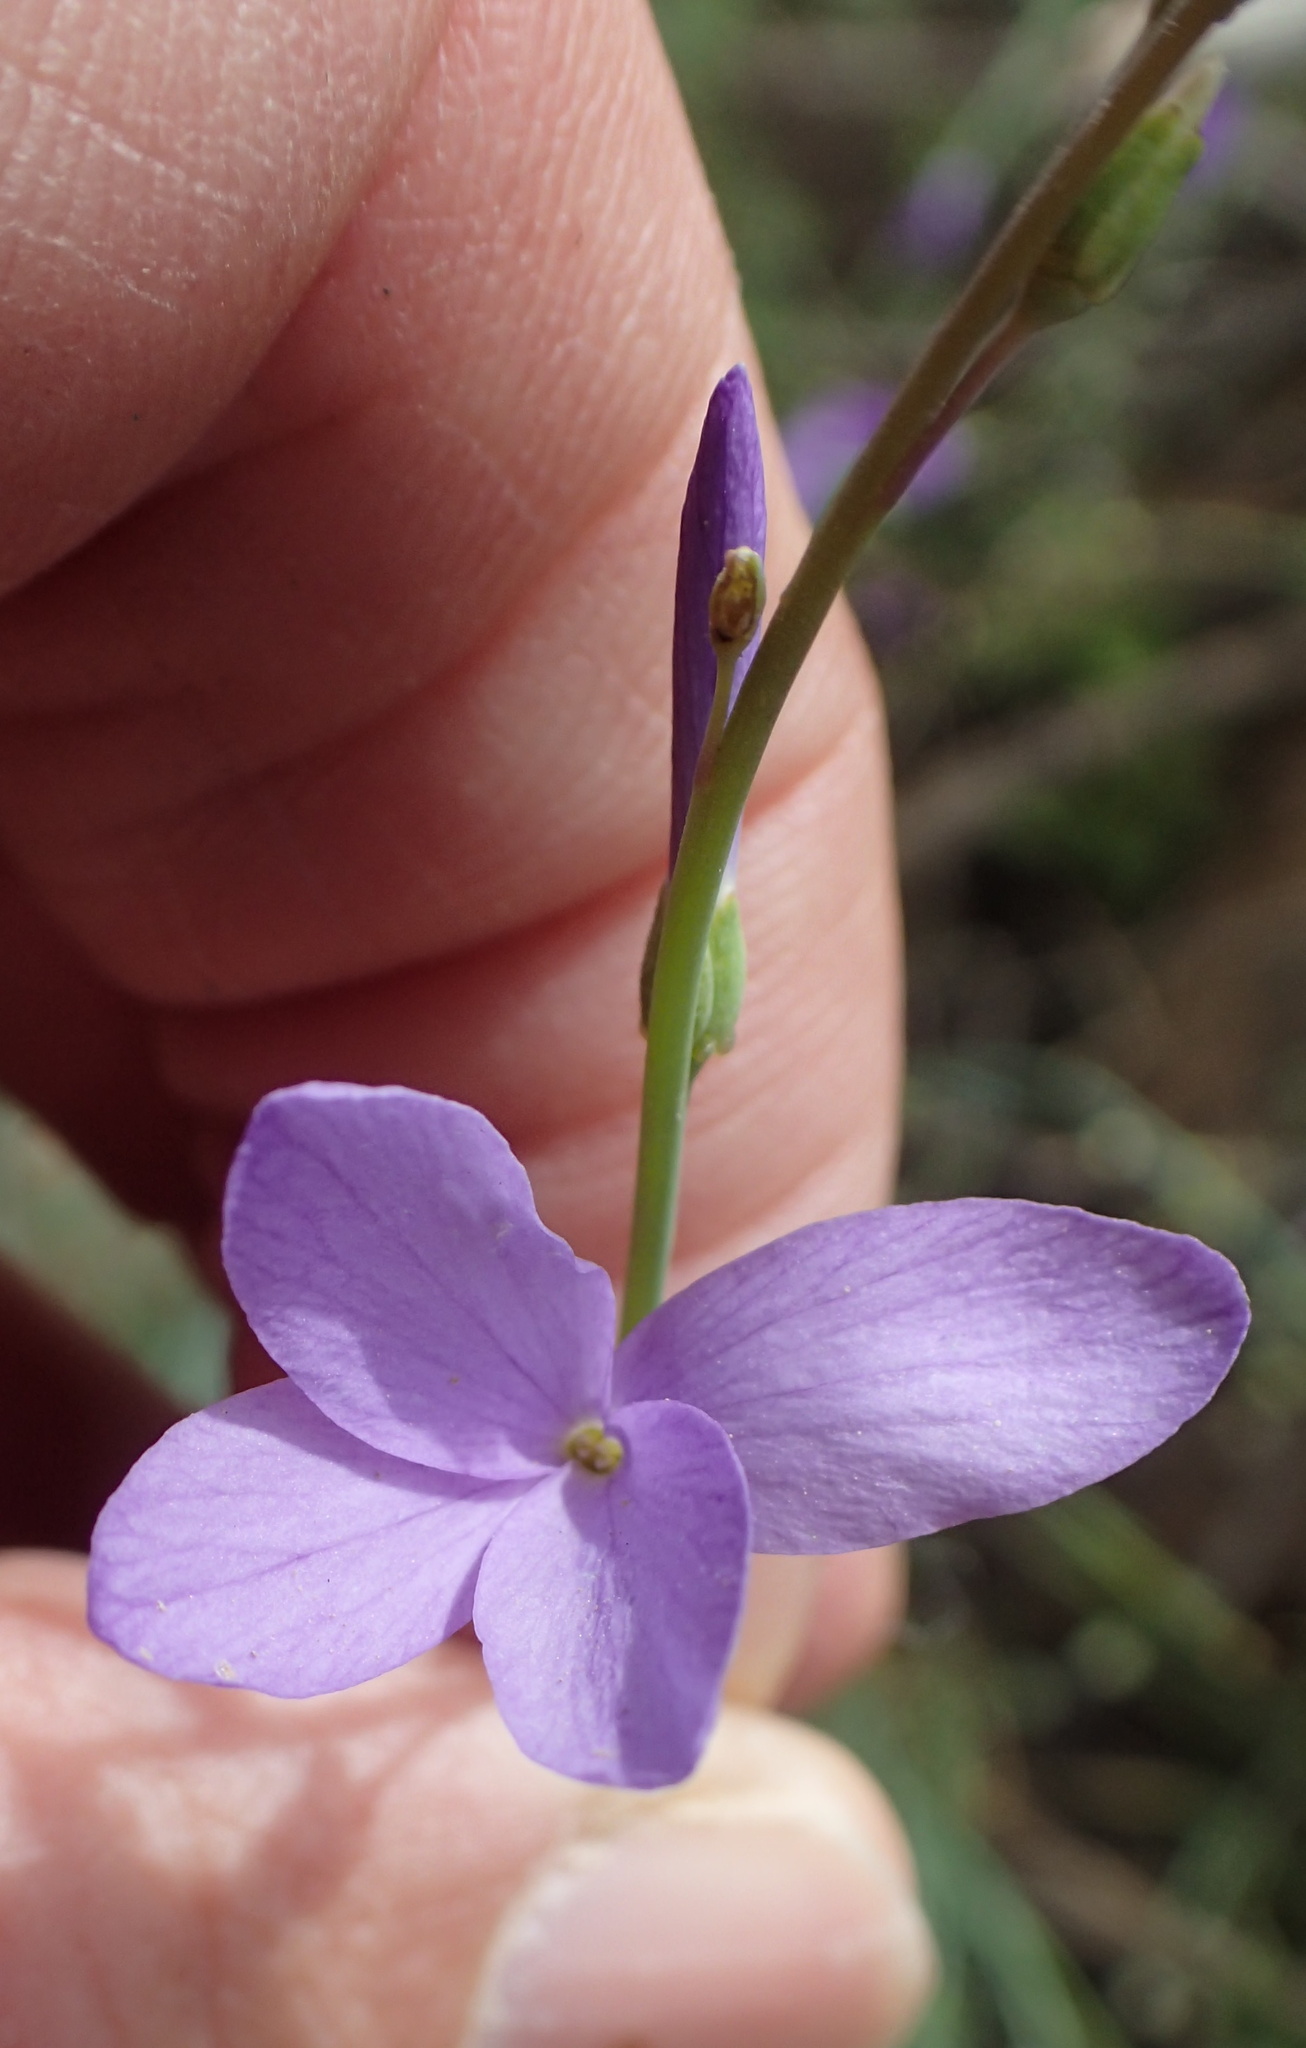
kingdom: Plantae
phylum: Tracheophyta
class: Magnoliopsida
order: Brassicales
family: Brassicaceae
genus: Heliophila
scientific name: Heliophila juncea
